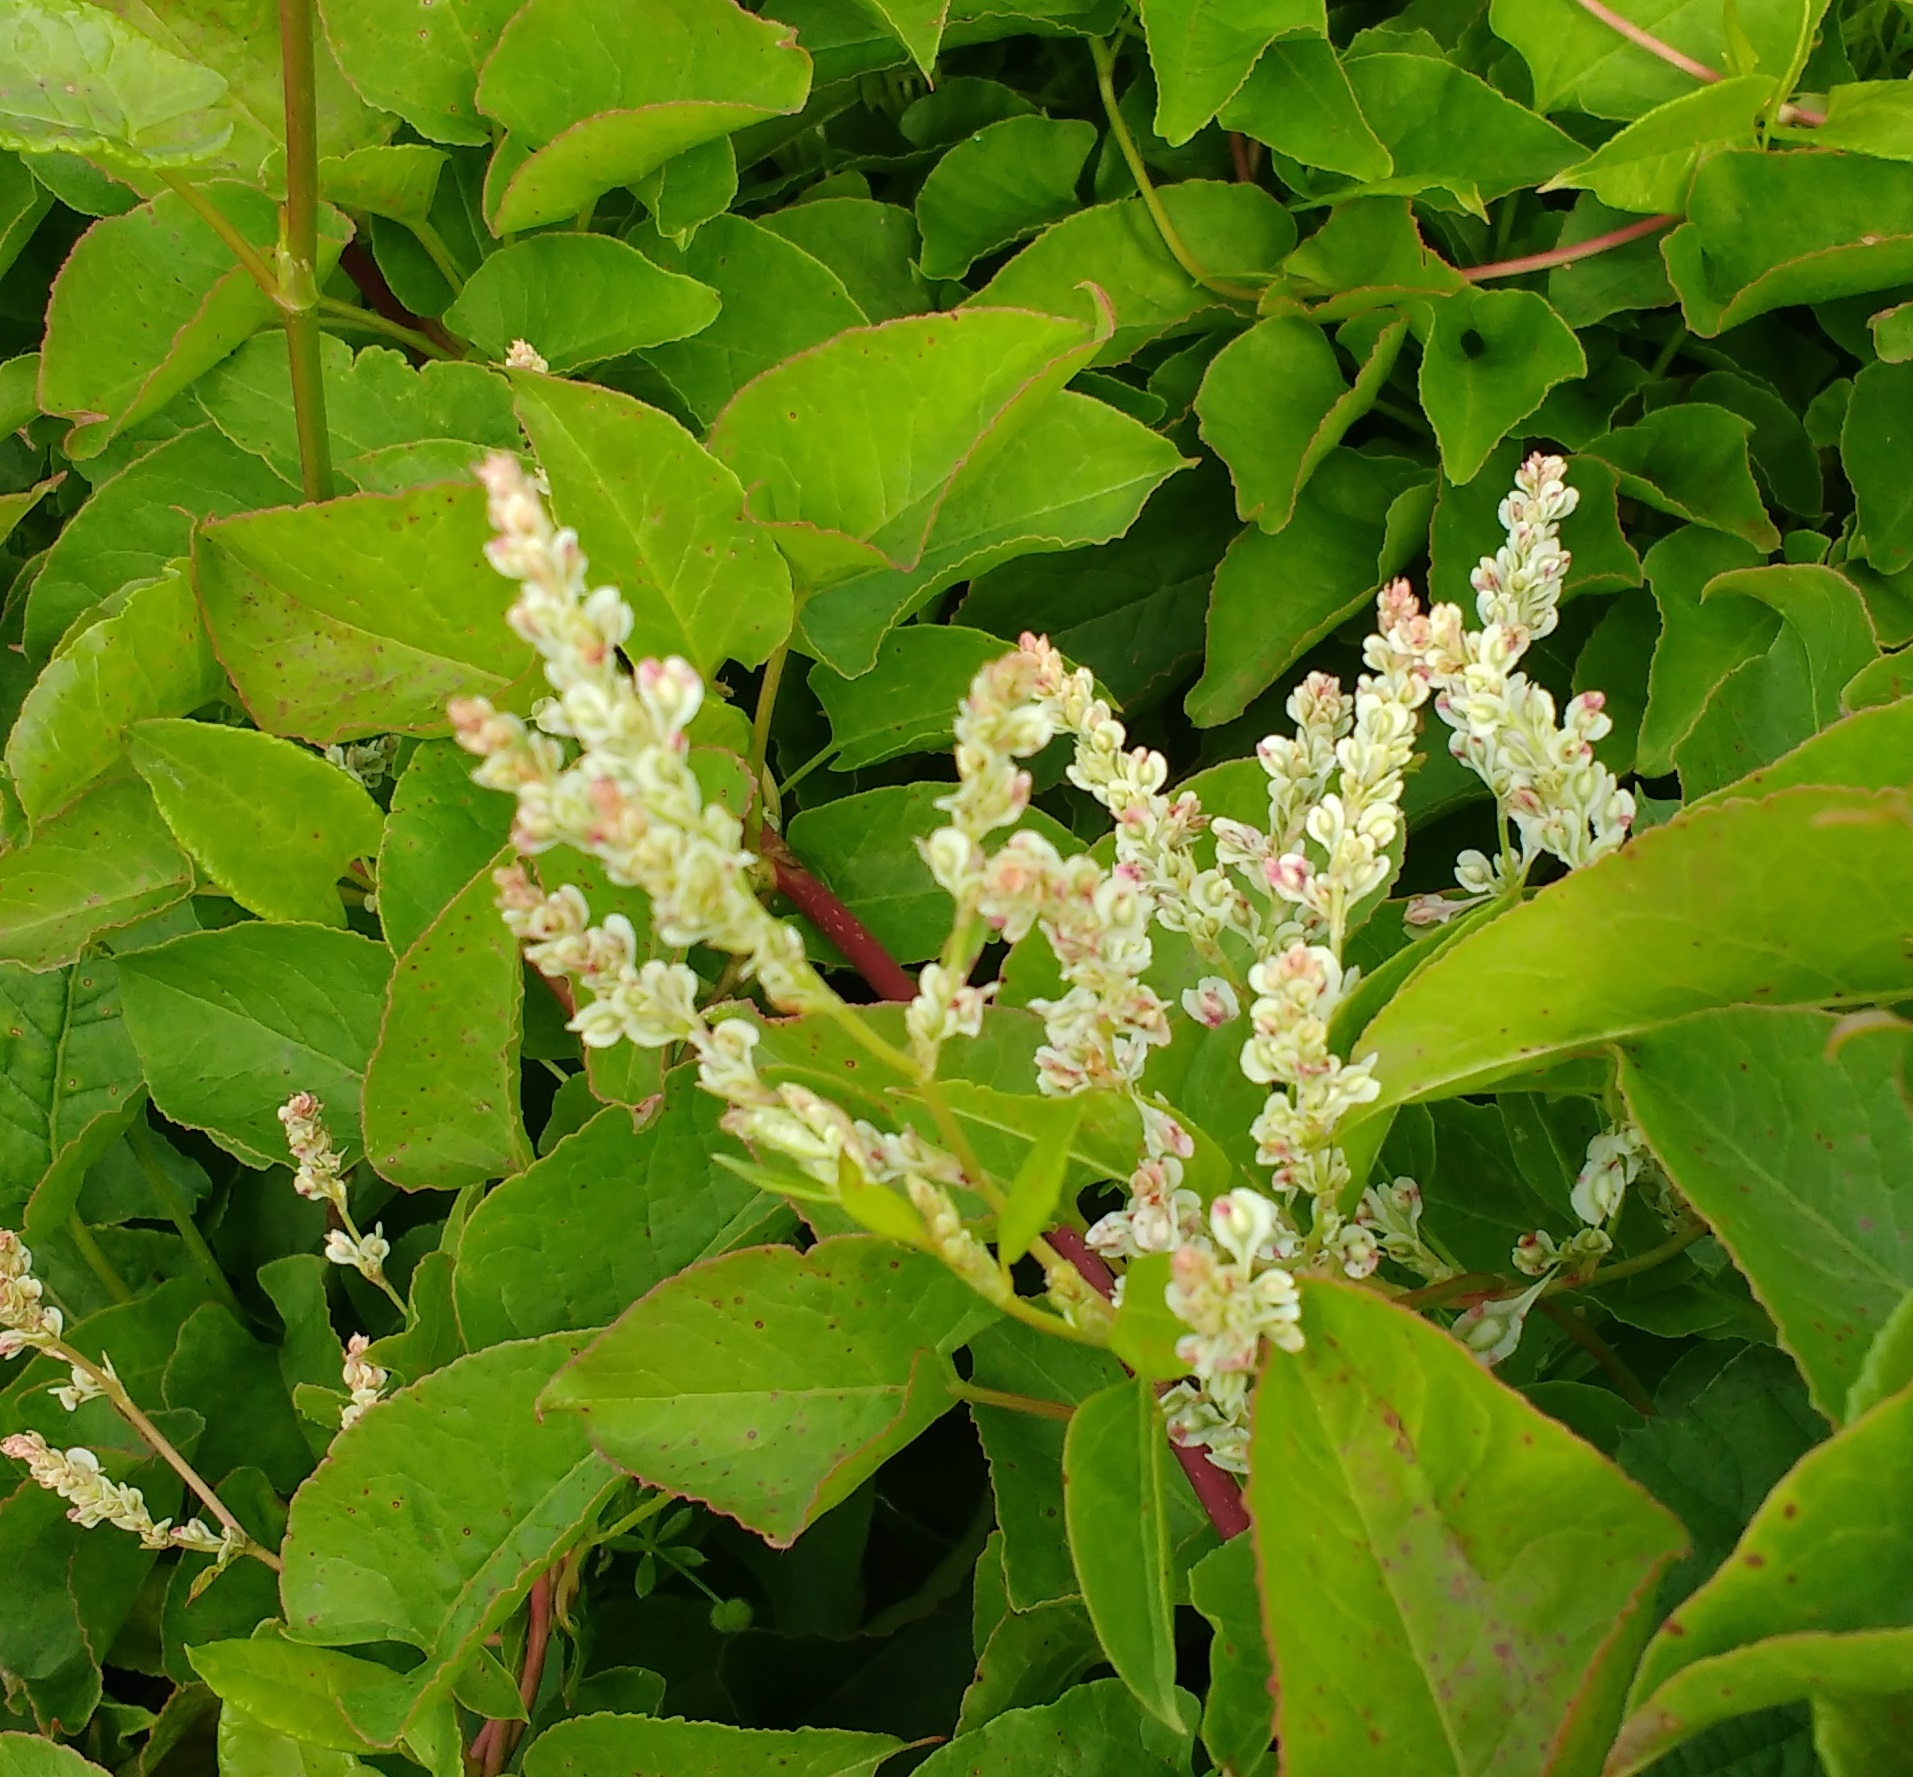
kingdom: Plantae
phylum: Tracheophyta
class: Magnoliopsida
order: Caryophyllales
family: Polygonaceae
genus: Fallopia
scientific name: Fallopia baldschuanica
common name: Russian-vine
